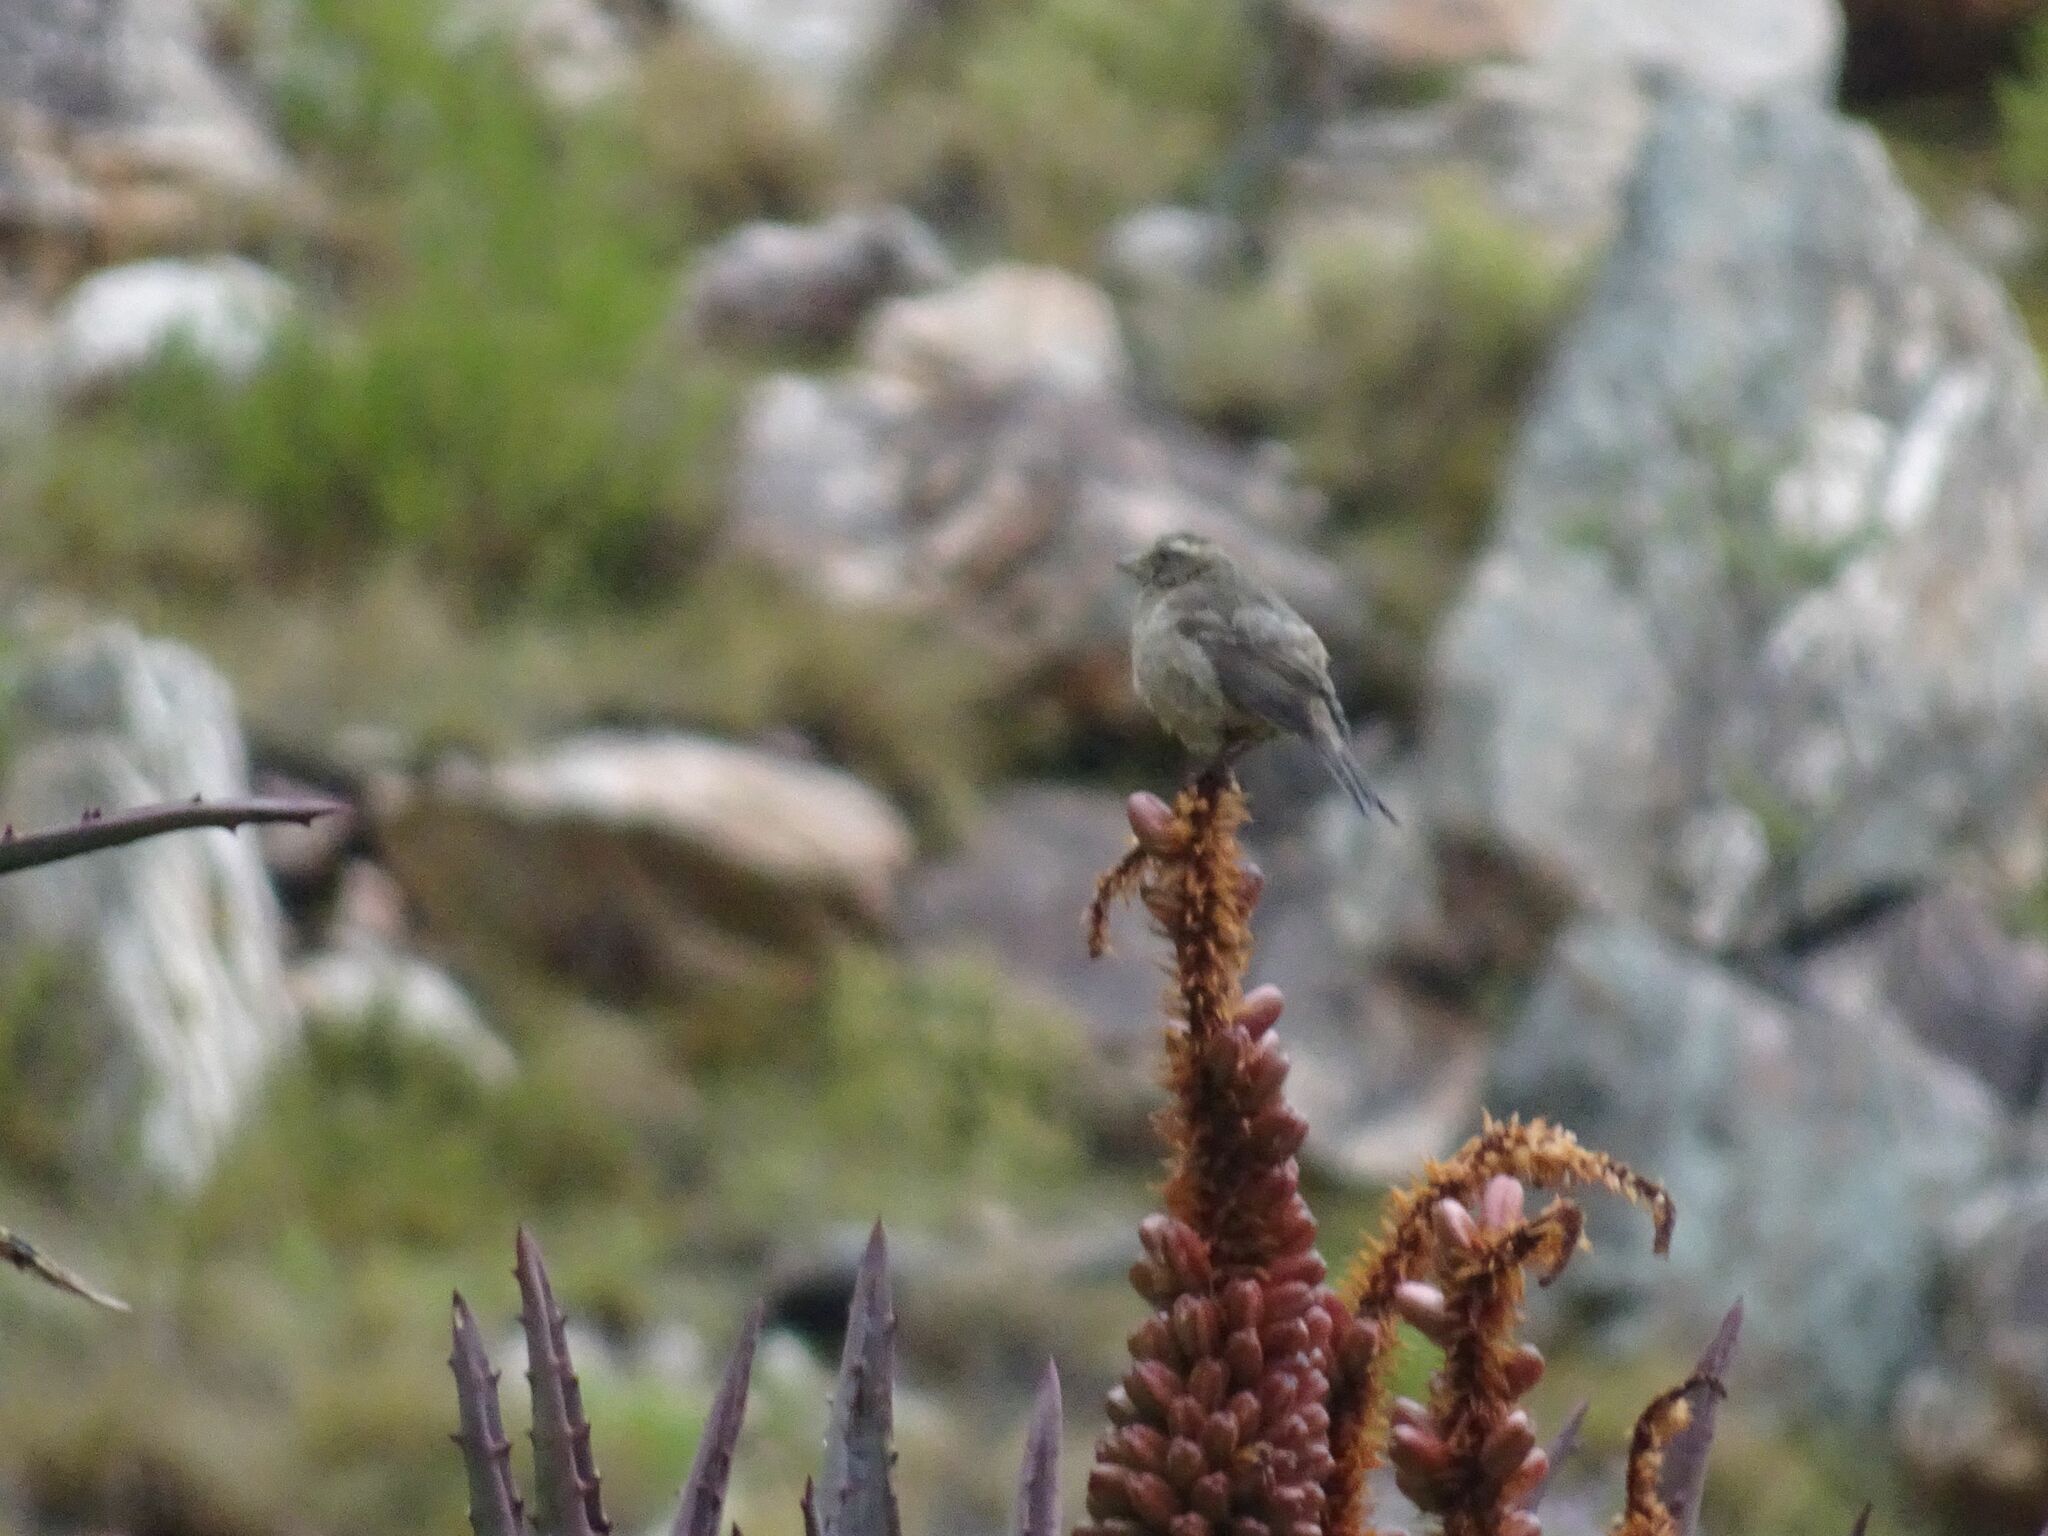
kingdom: Animalia
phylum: Chordata
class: Aves
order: Passeriformes
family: Fringillidae
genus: Crithagra
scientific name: Crithagra gularis
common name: Streaky-headed seedeater
